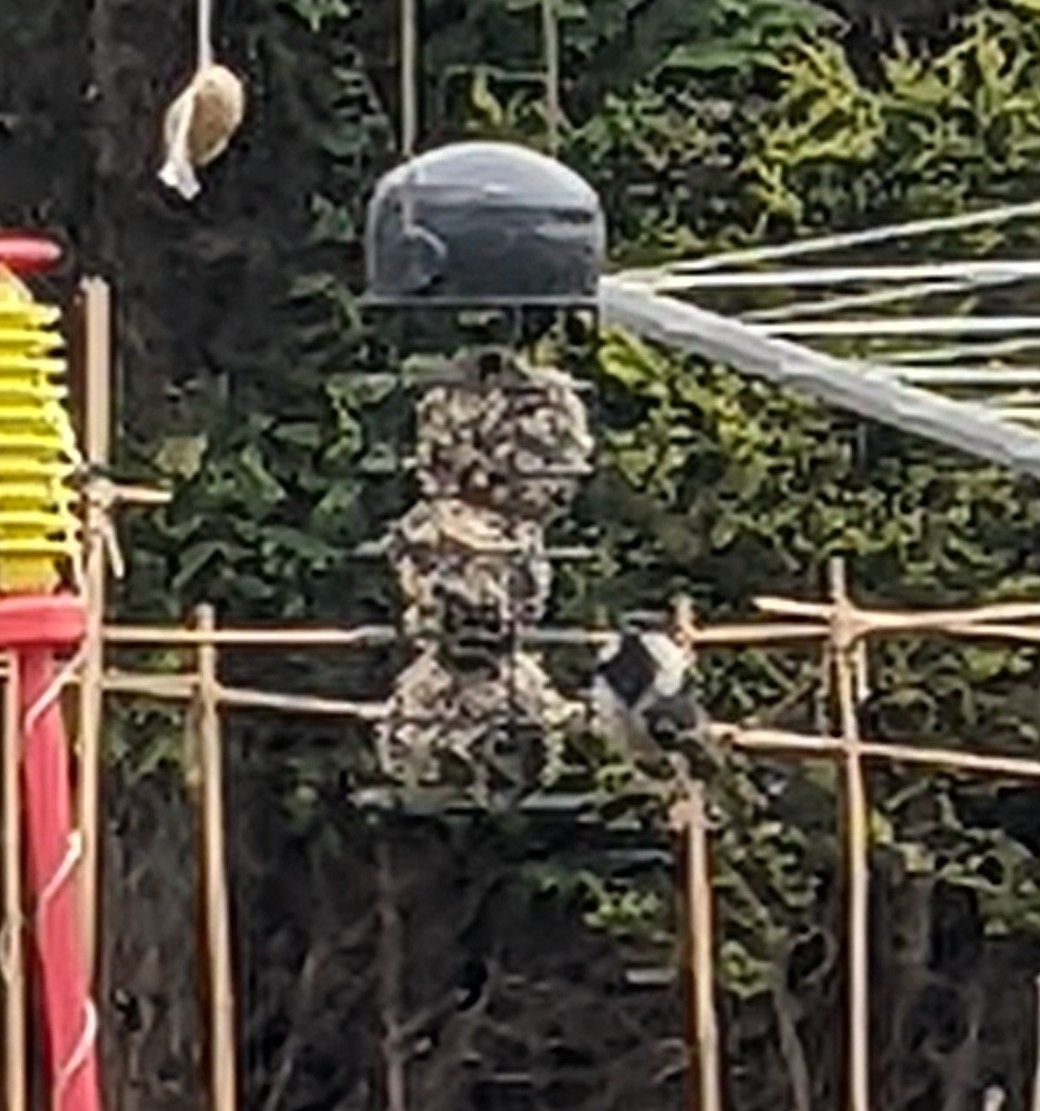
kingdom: Animalia
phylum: Chordata
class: Aves
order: Passeriformes
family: Paridae
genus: Periparus
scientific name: Periparus ater
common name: Coal tit
